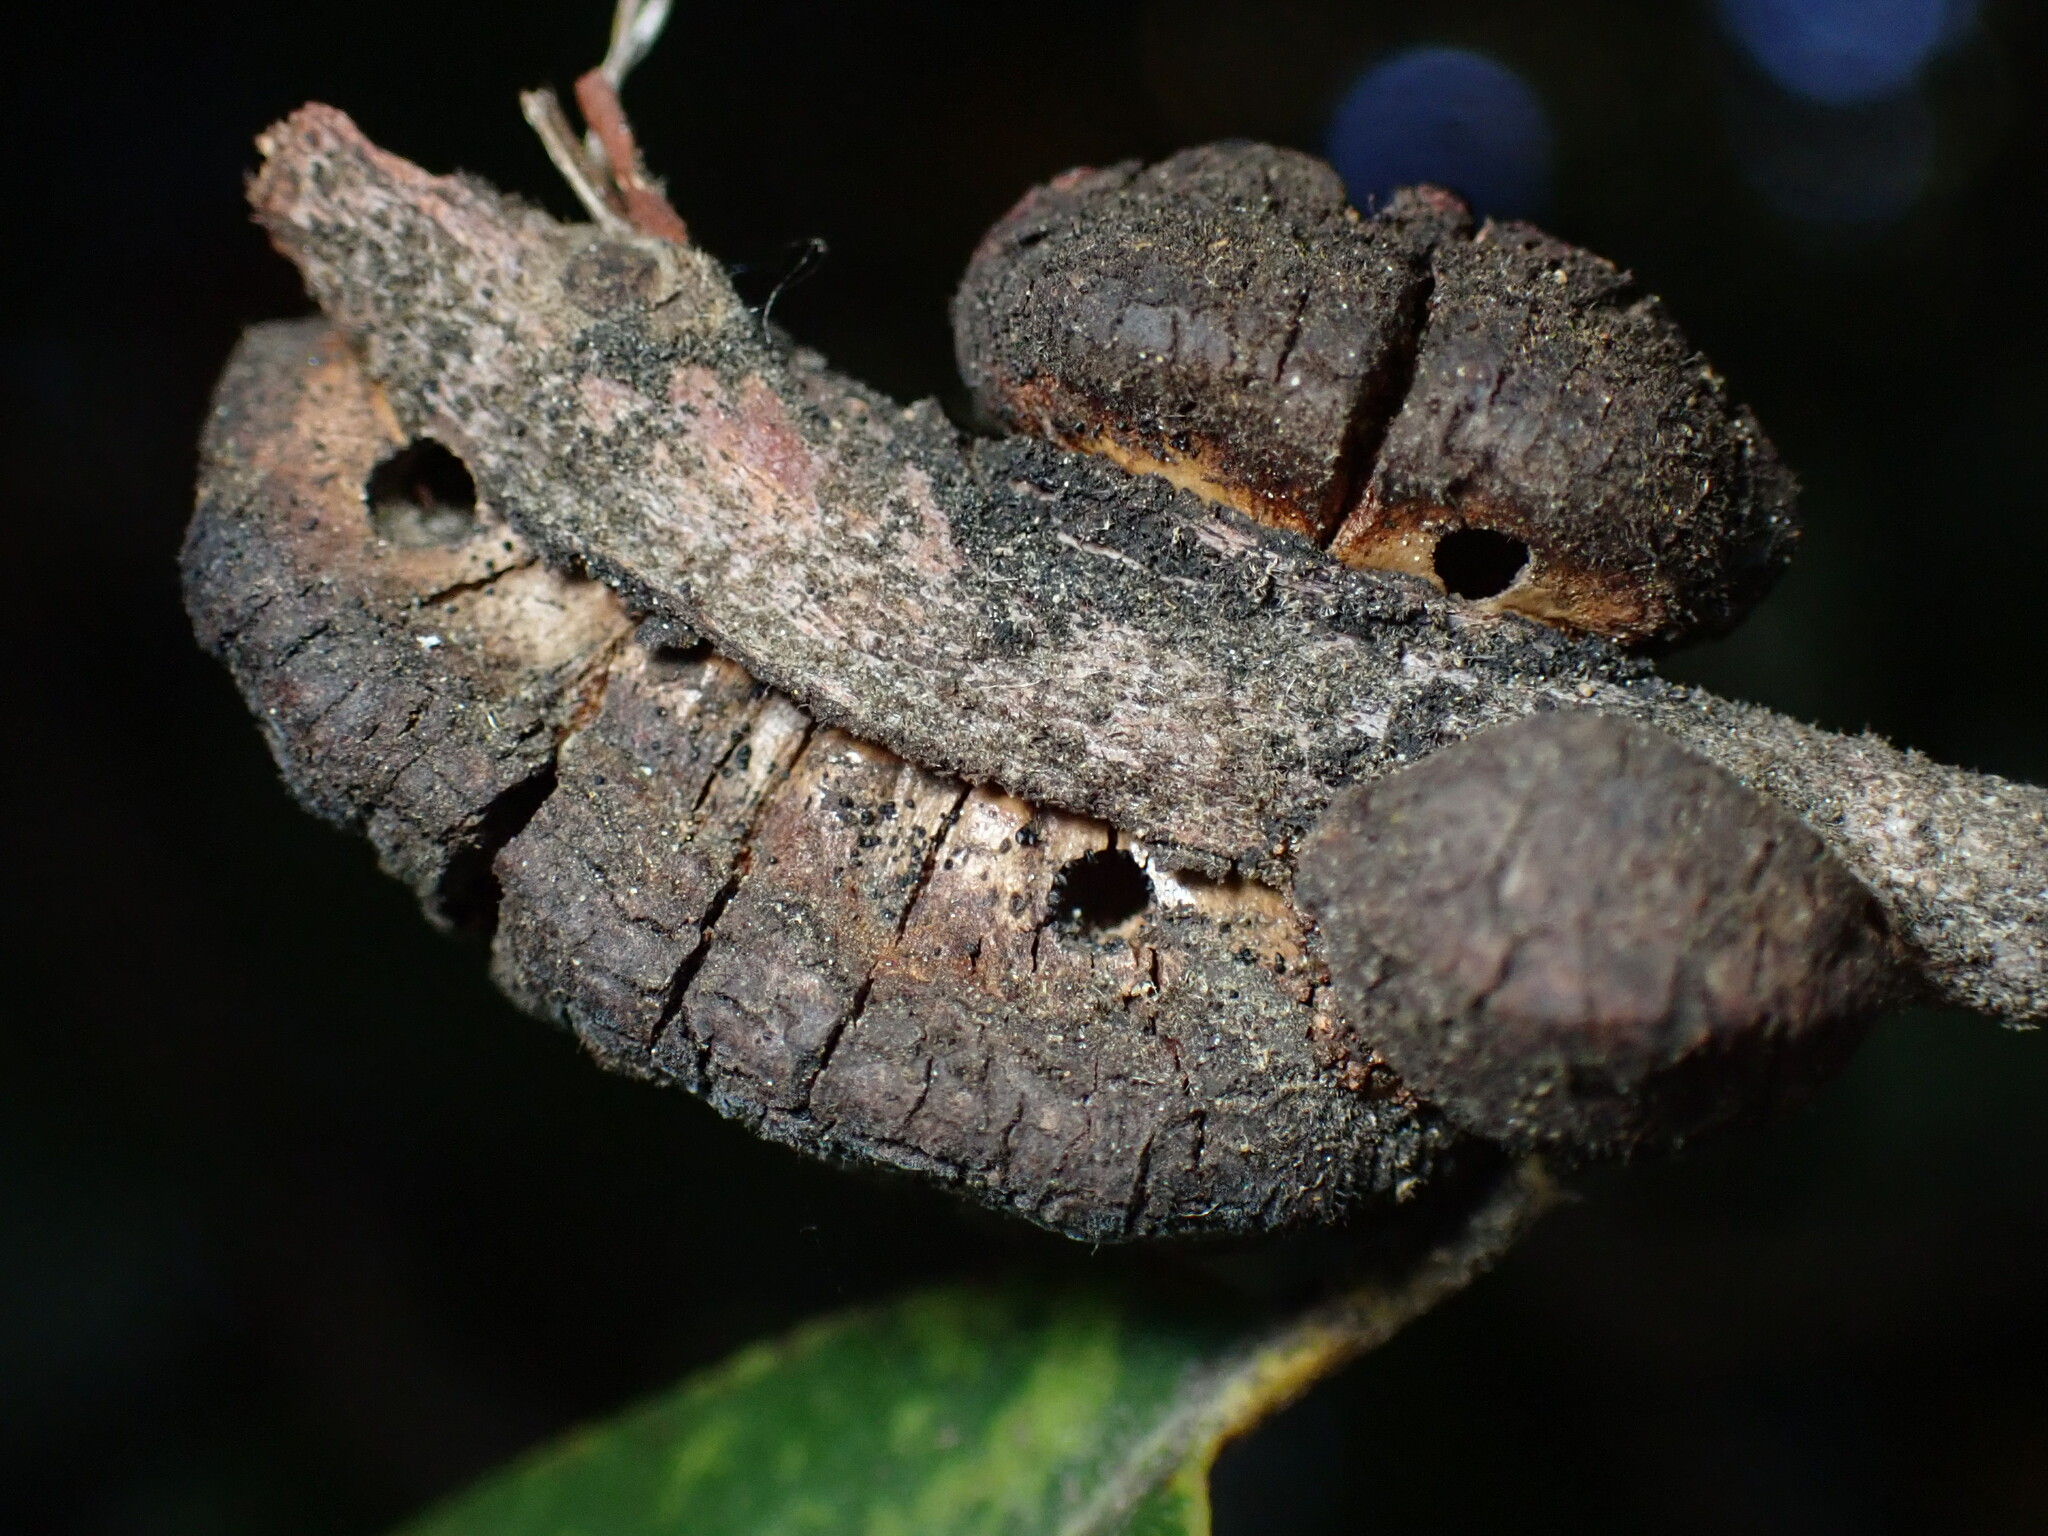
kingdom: Animalia
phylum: Arthropoda
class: Insecta
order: Hymenoptera
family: Cynipidae
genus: Disholandricus
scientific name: Disholandricus
